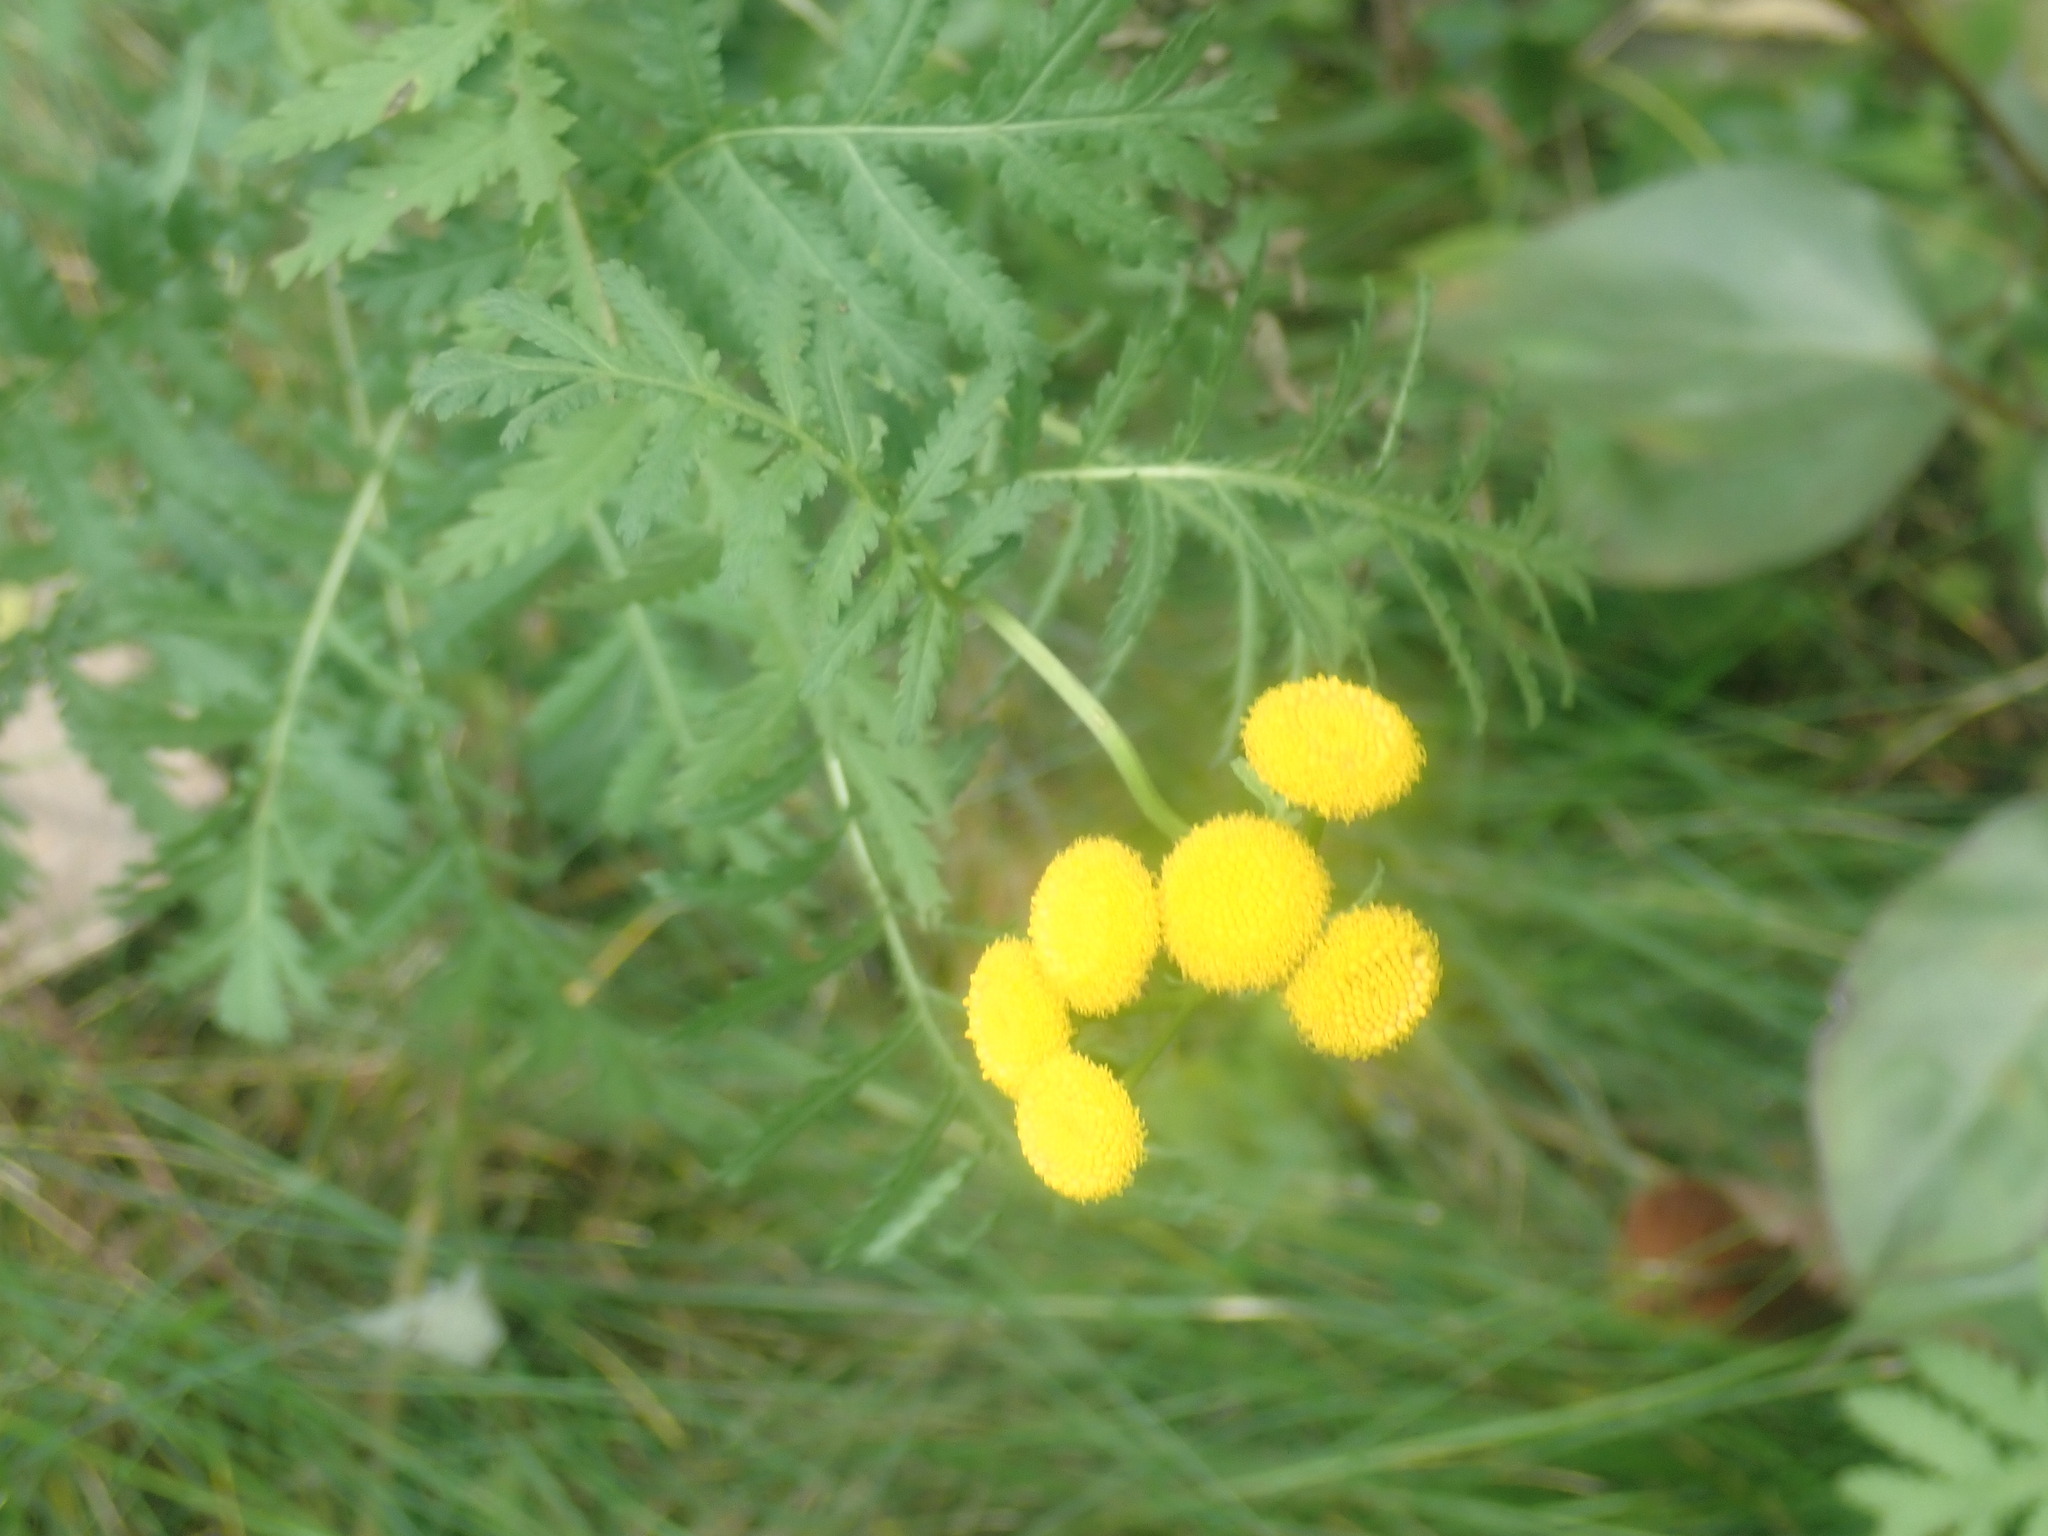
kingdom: Plantae
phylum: Tracheophyta
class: Magnoliopsida
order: Asterales
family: Asteraceae
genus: Tanacetum
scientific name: Tanacetum vulgare
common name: Common tansy
